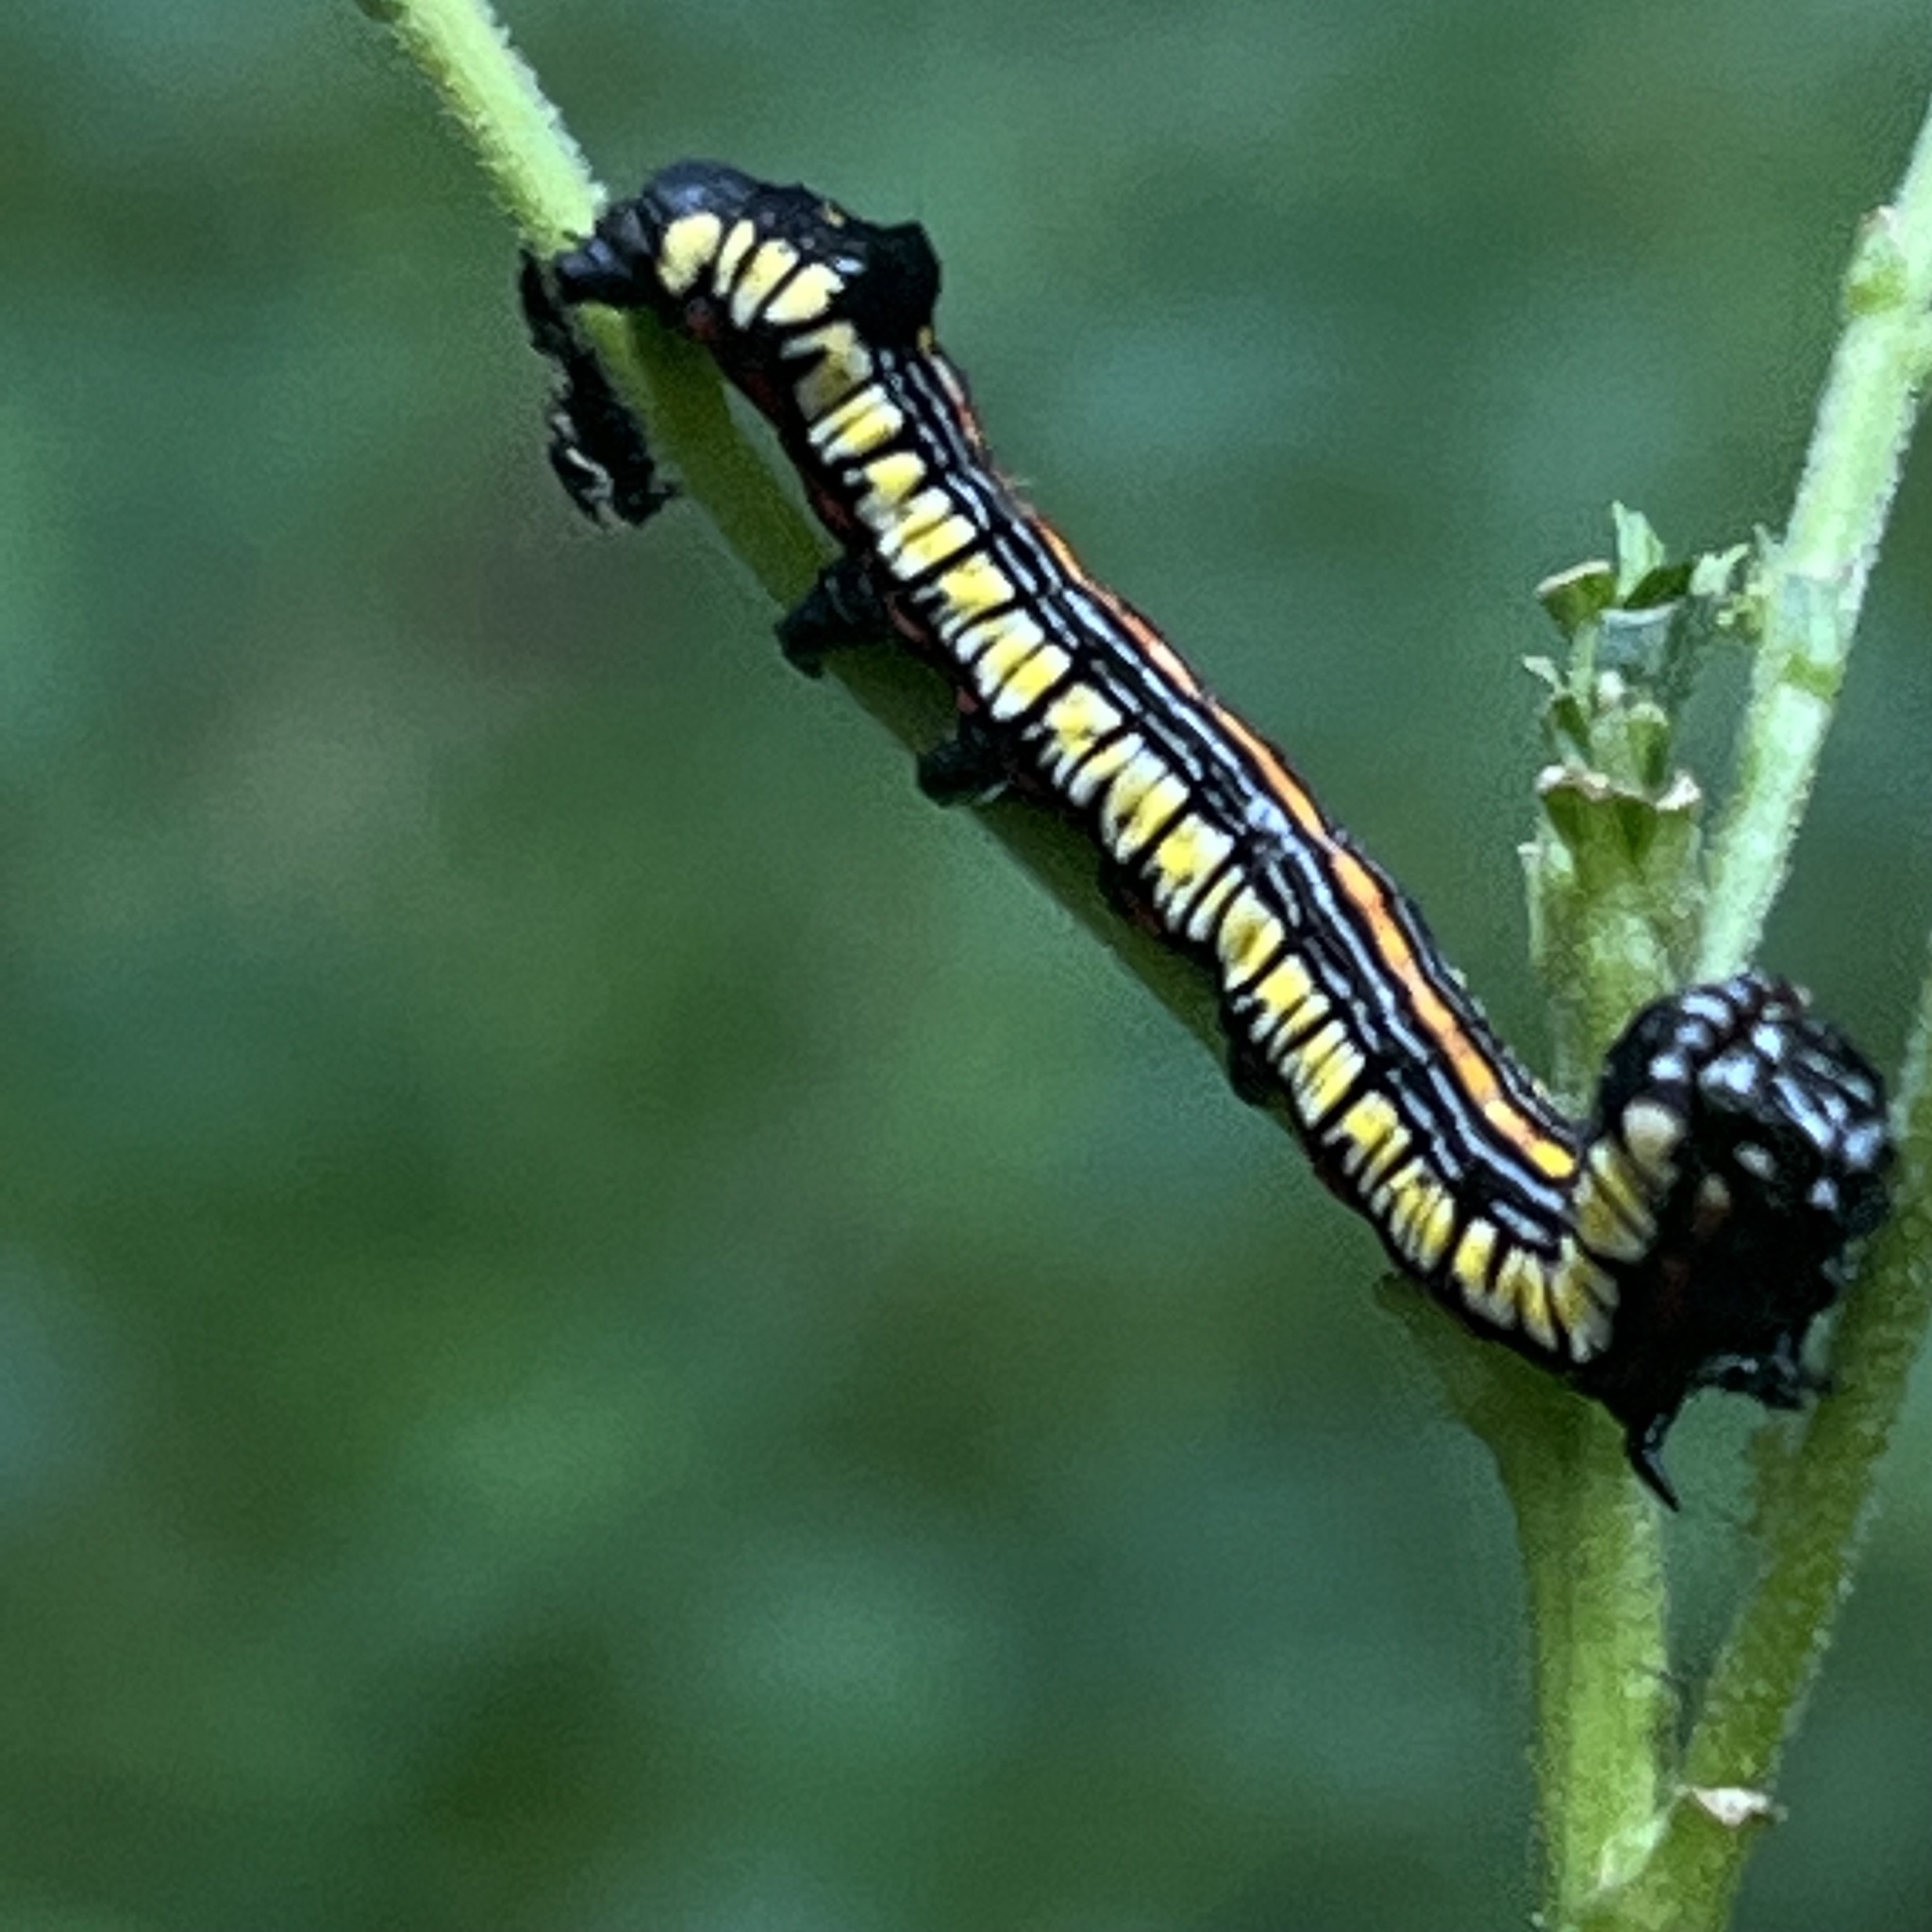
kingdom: Animalia
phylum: Arthropoda
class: Insecta
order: Lepidoptera
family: Noctuidae
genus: Cucullia
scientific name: Cucullia convexipennis
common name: Brown-hooded owlet
